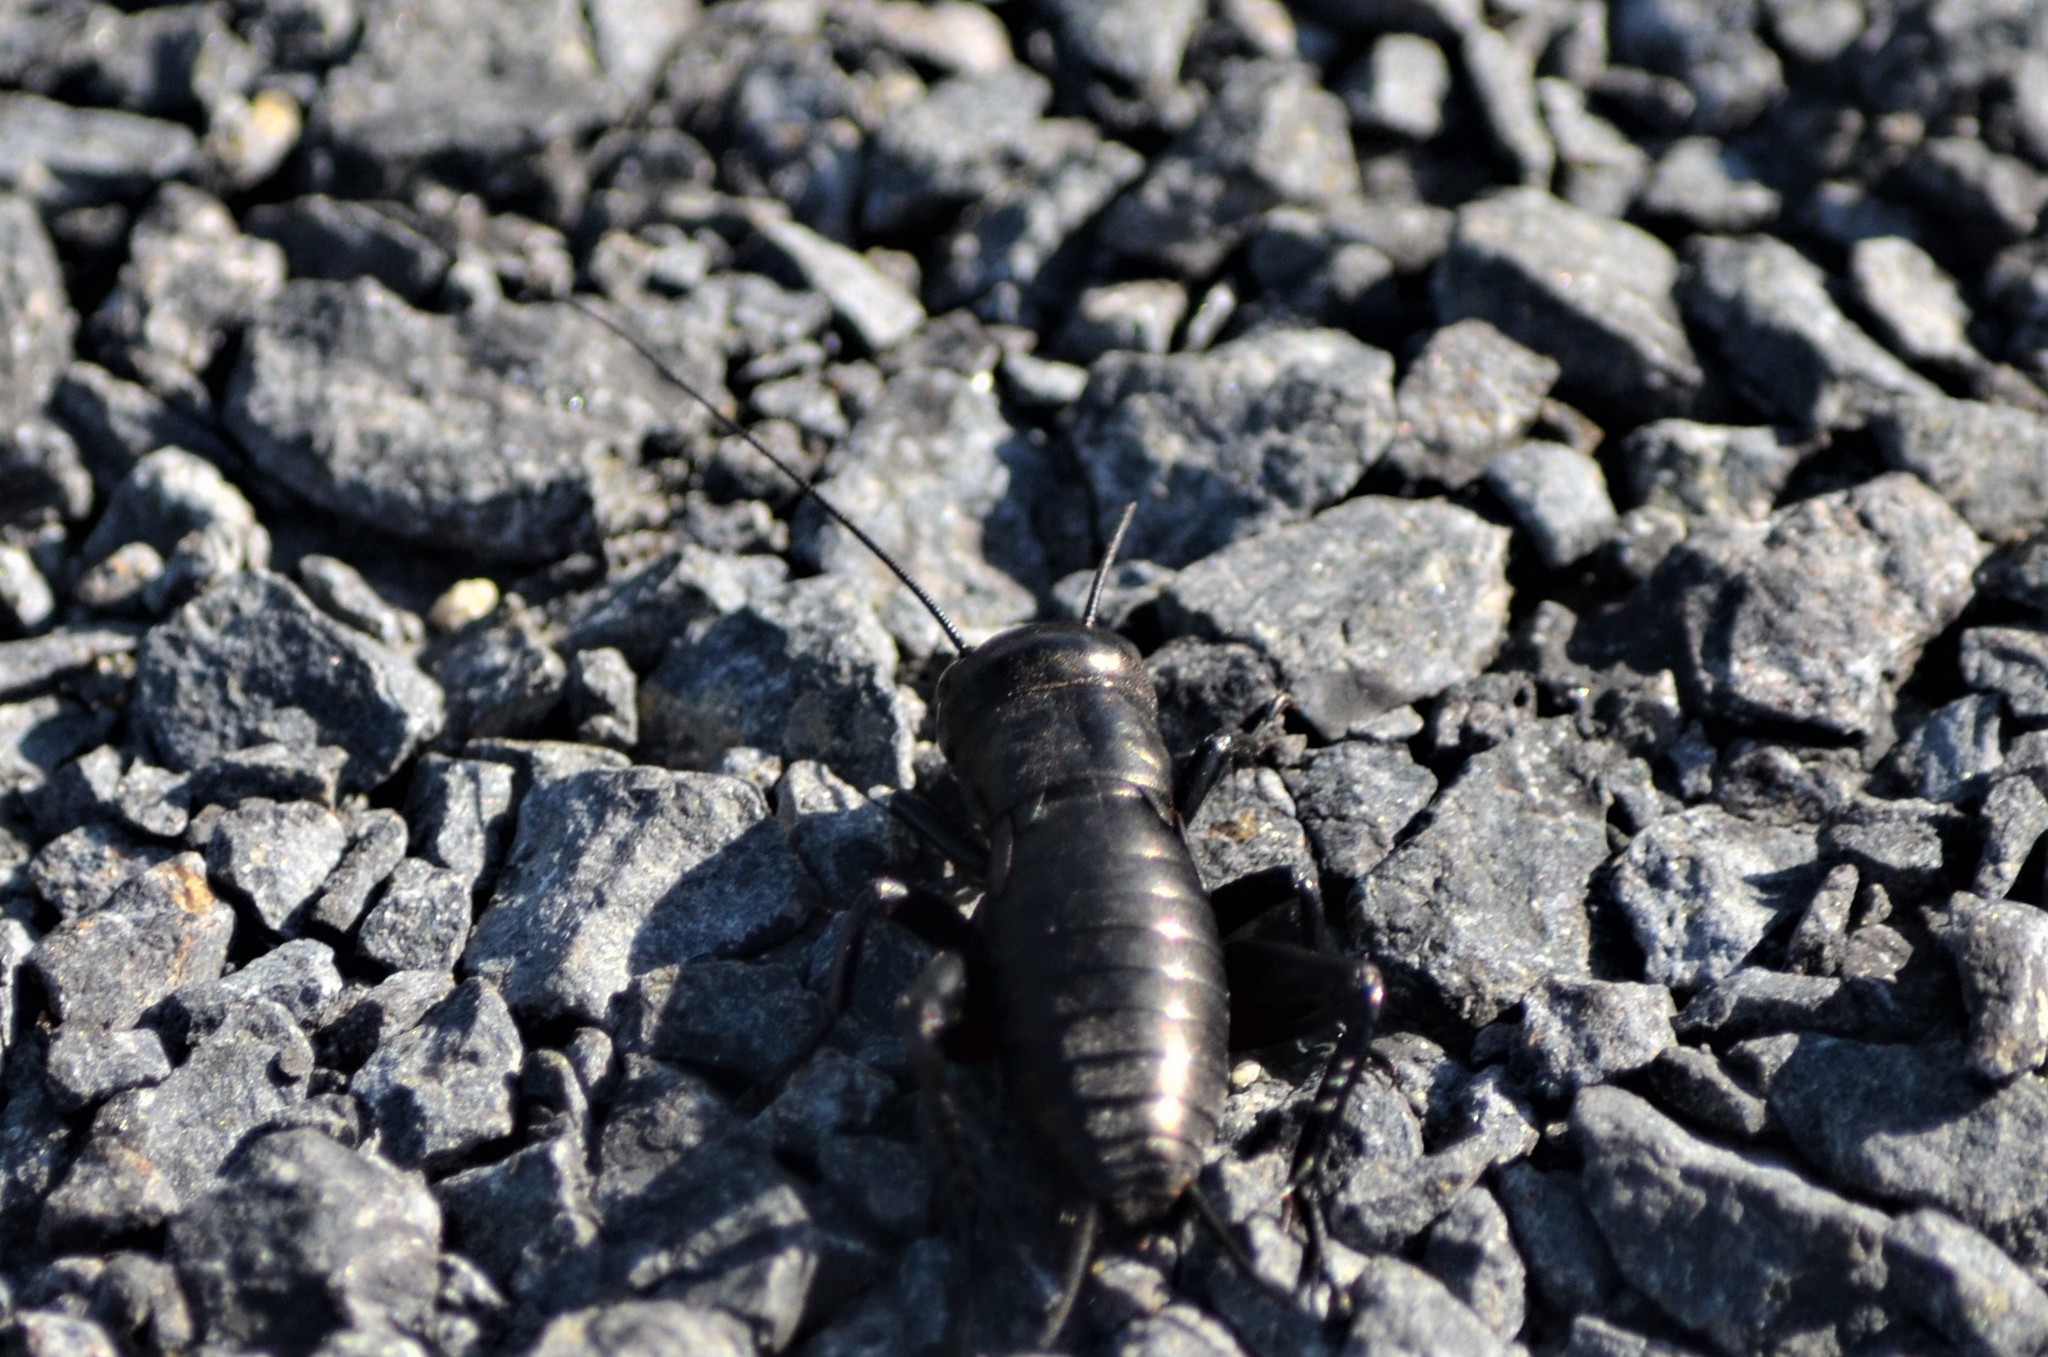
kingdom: Animalia
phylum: Arthropoda
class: Insecta
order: Orthoptera
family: Gryllidae
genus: Gryllus
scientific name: Gryllus campestris
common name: Field cricket
